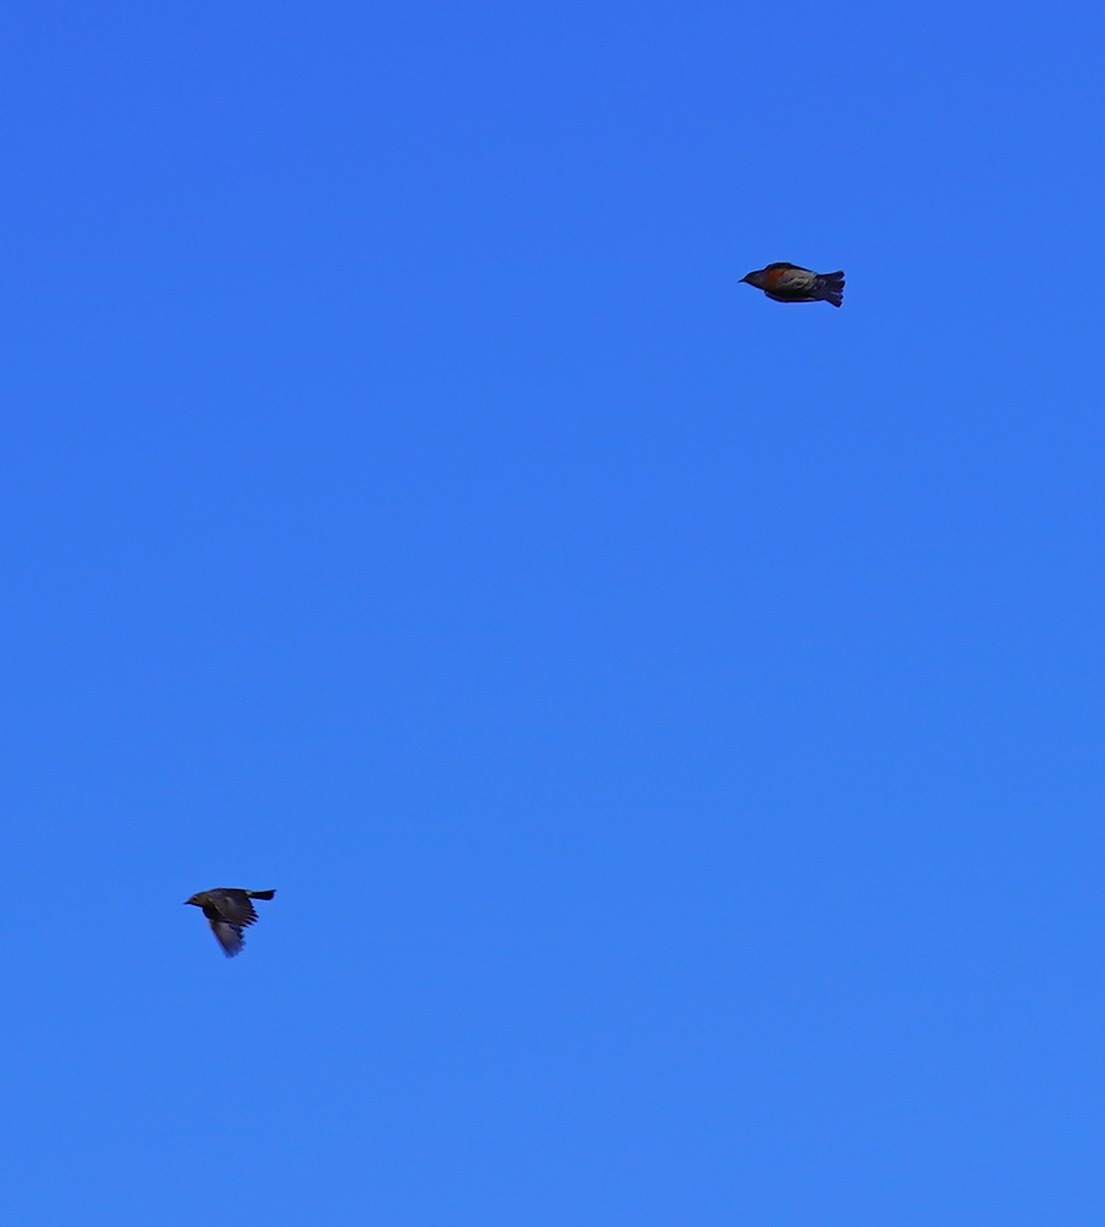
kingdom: Animalia
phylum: Chordata
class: Aves
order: Passeriformes
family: Turdidae
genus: Sialia
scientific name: Sialia mexicana
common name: Western bluebird
